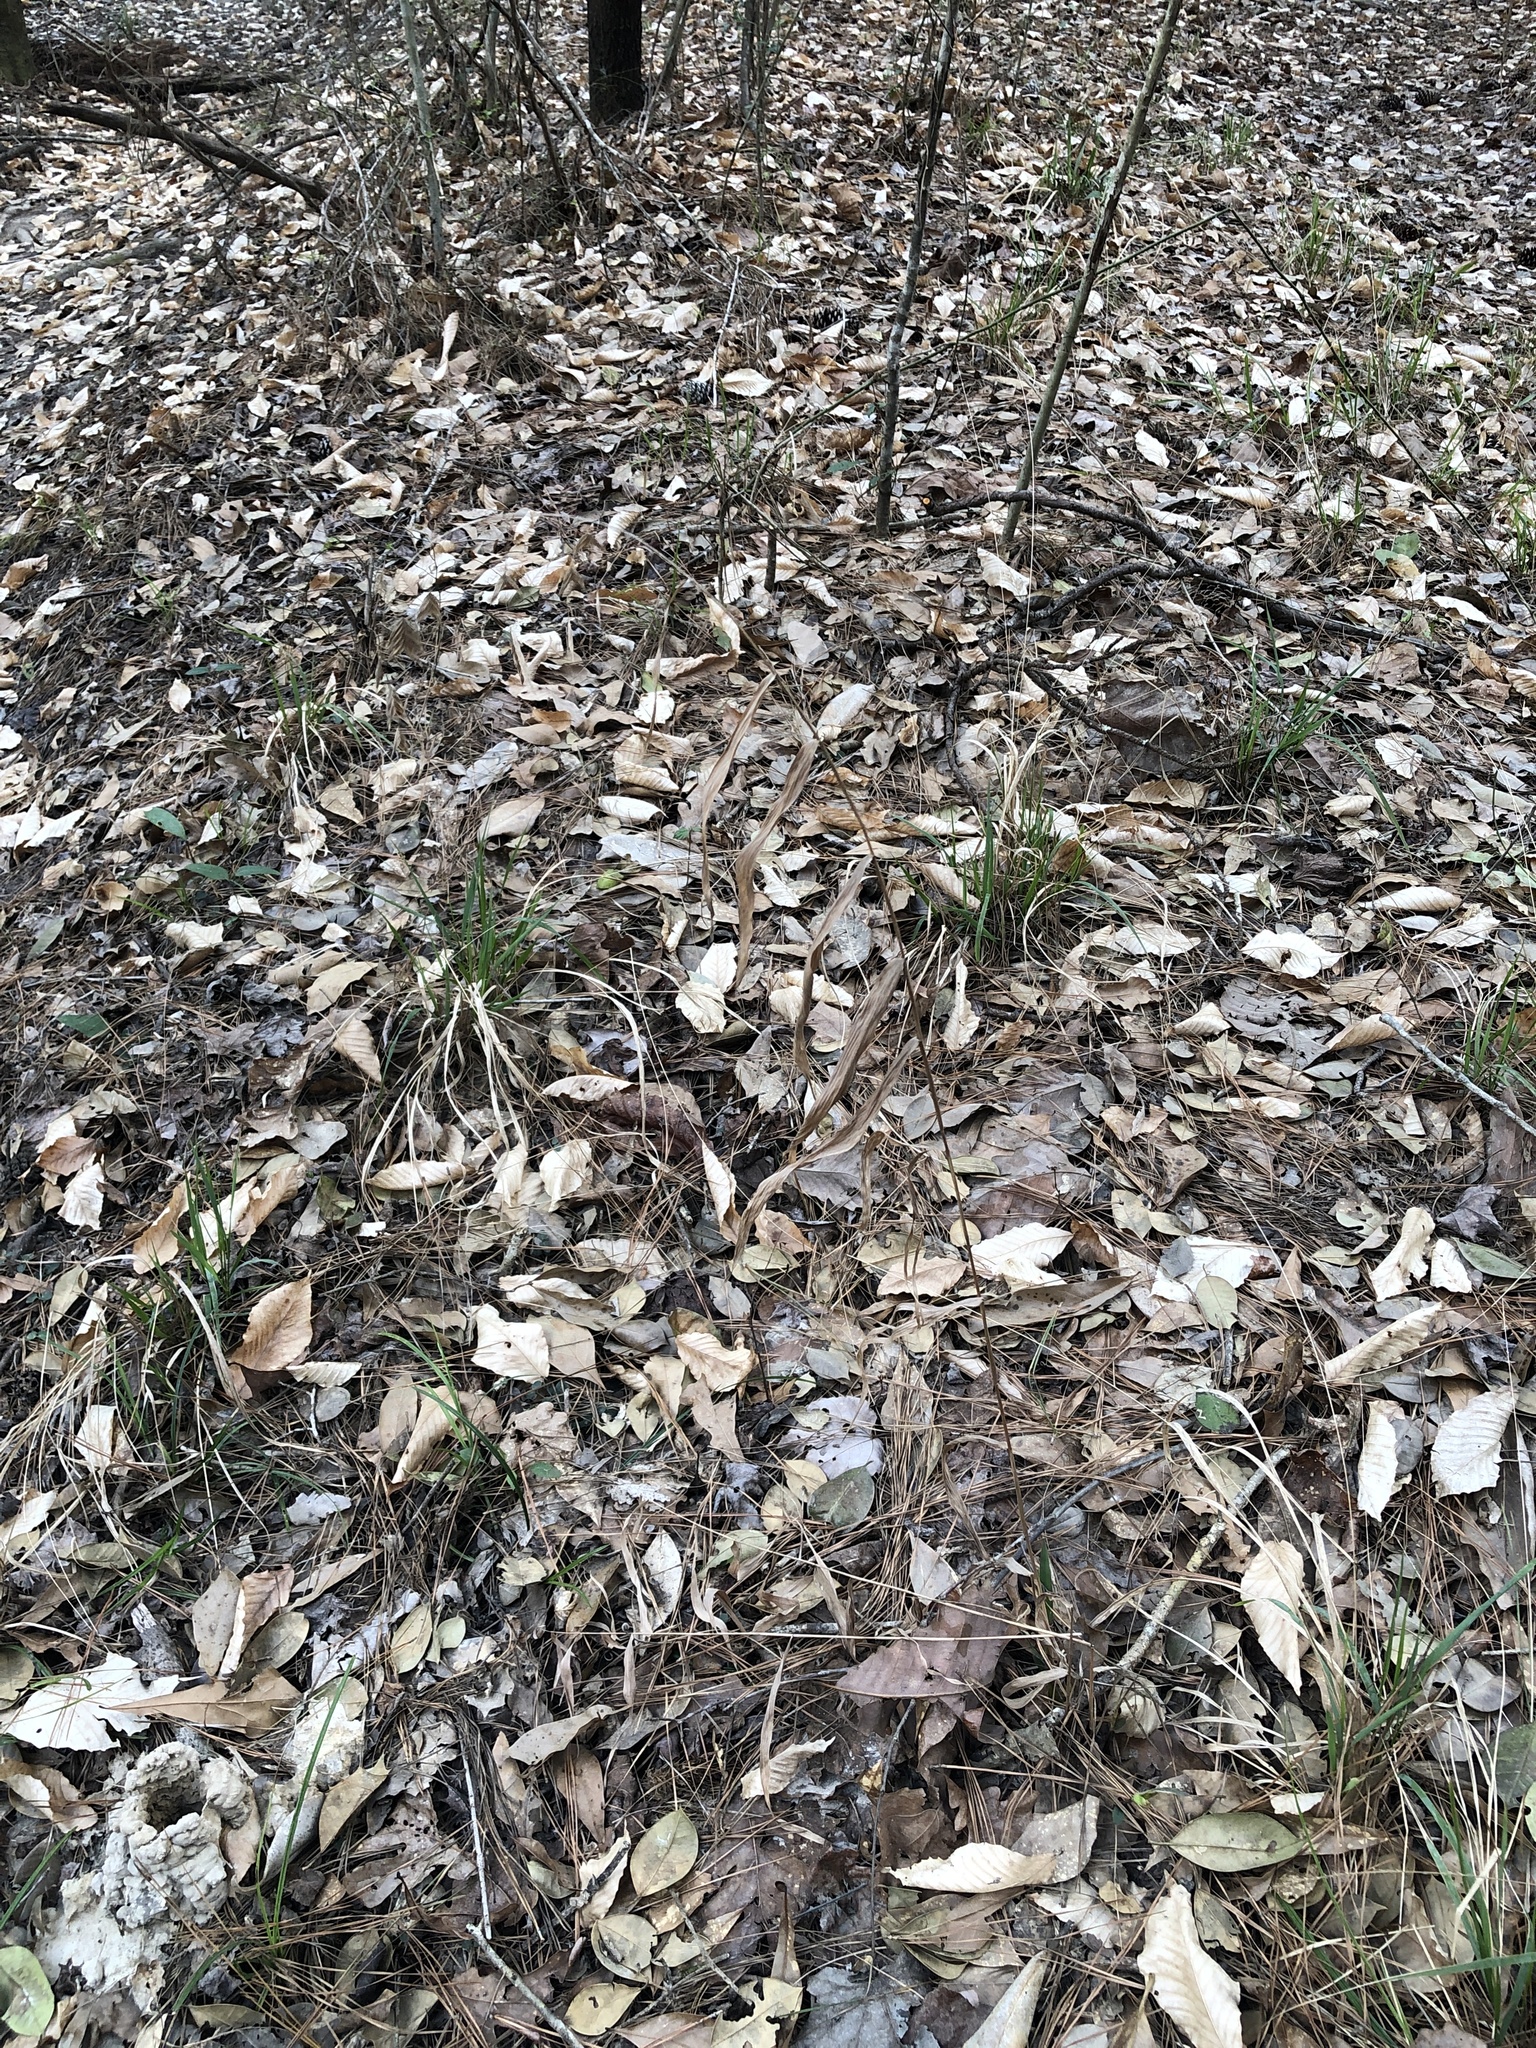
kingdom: Plantae
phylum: Tracheophyta
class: Liliopsida
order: Poales
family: Poaceae
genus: Chasmanthium
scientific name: Chasmanthium latifolium
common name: Broad-leaved chasmanthium
